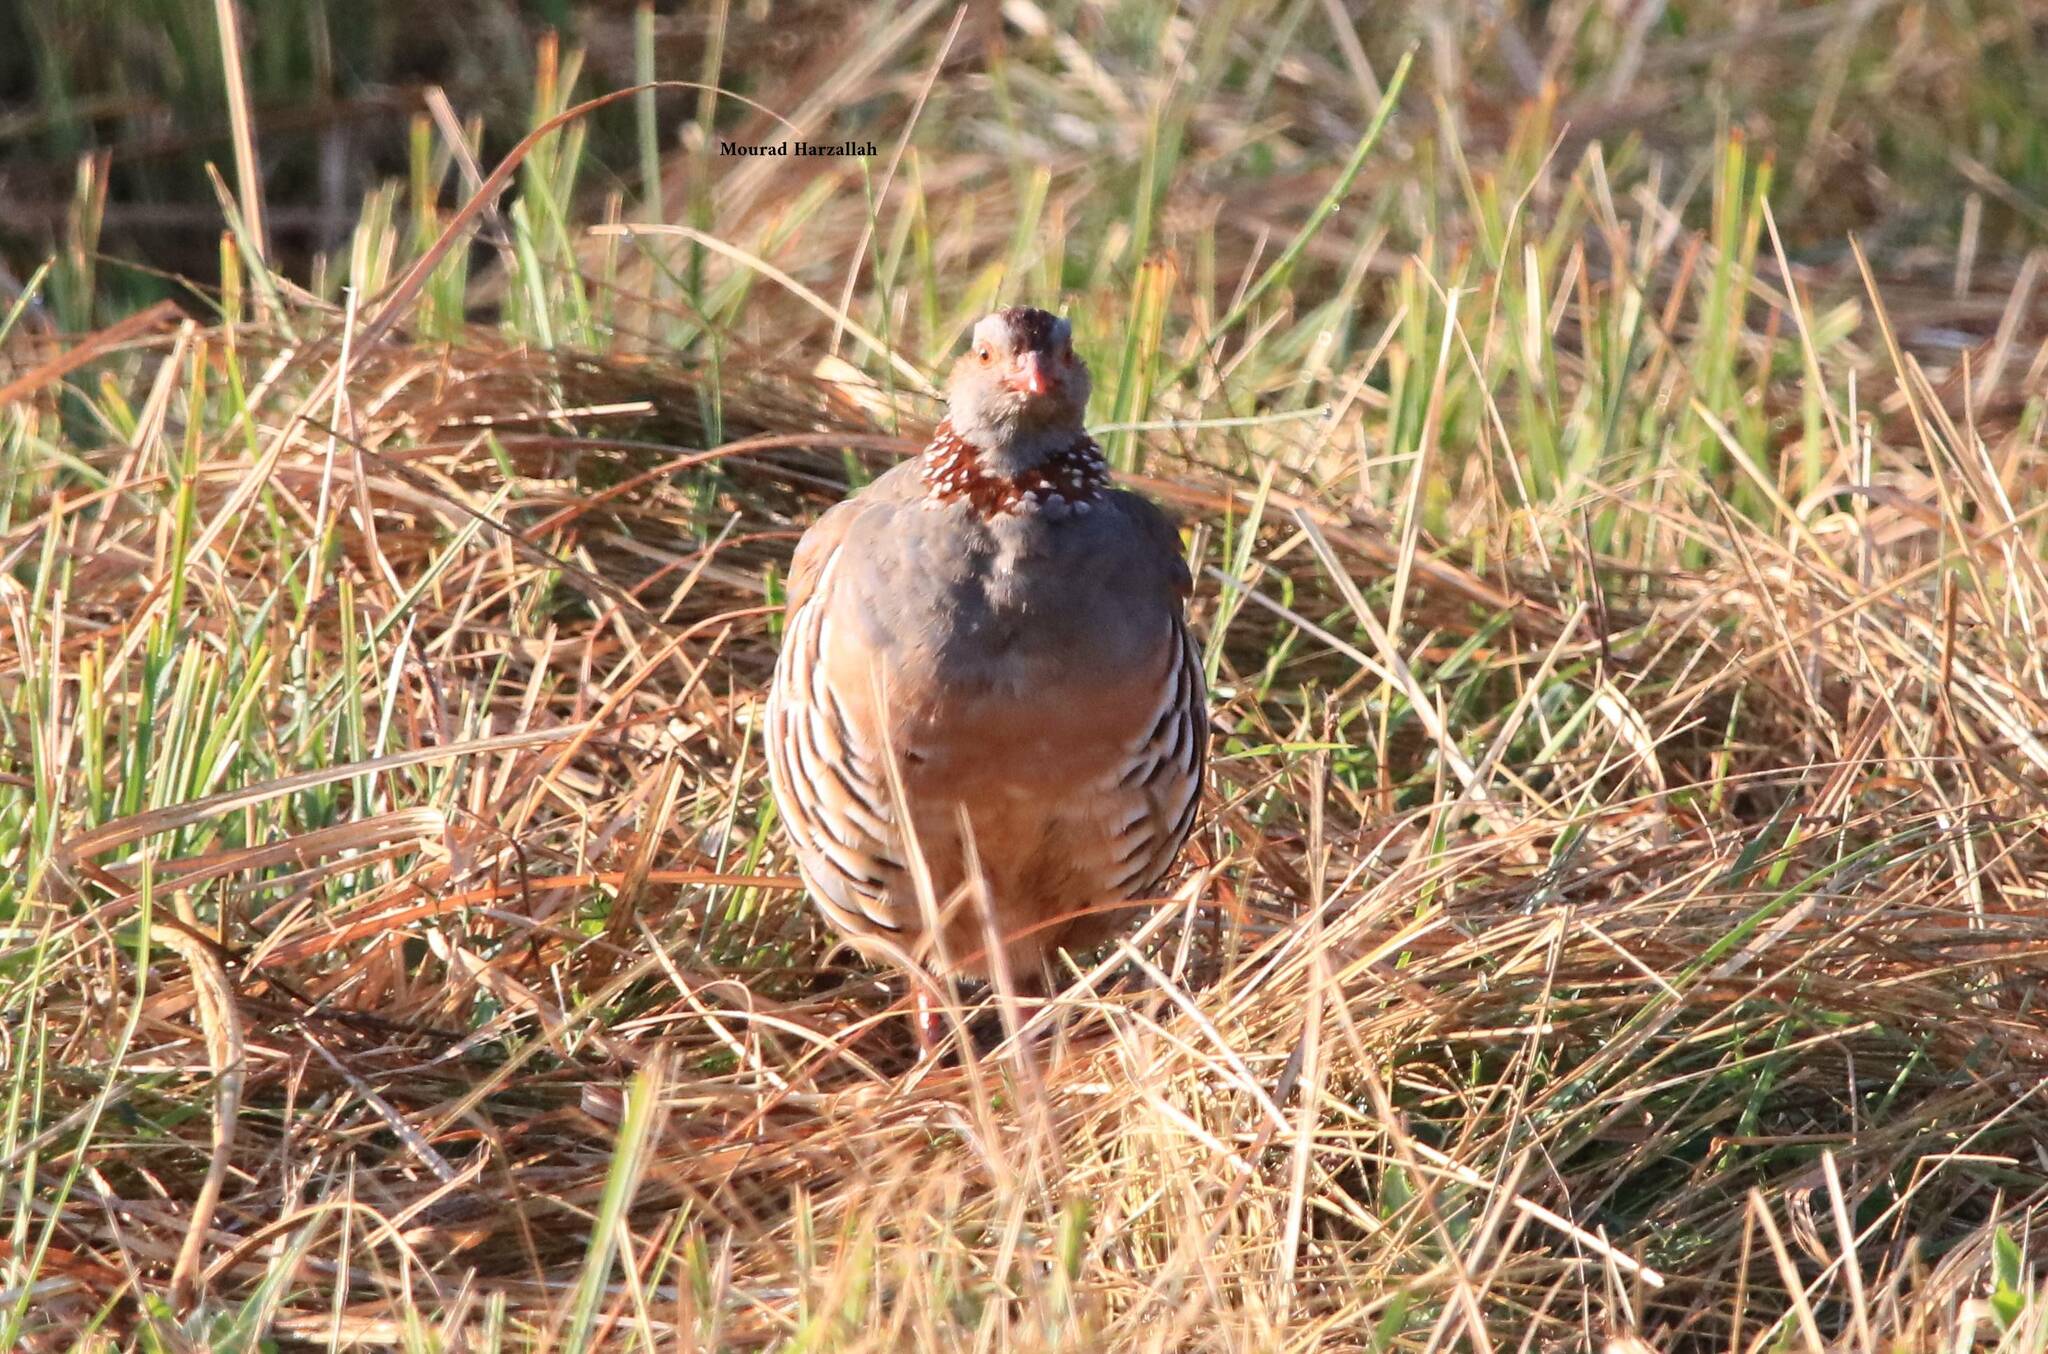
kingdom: Animalia
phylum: Chordata
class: Aves
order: Galliformes
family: Phasianidae
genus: Alectoris
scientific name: Alectoris barbara
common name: Barbary partridge
